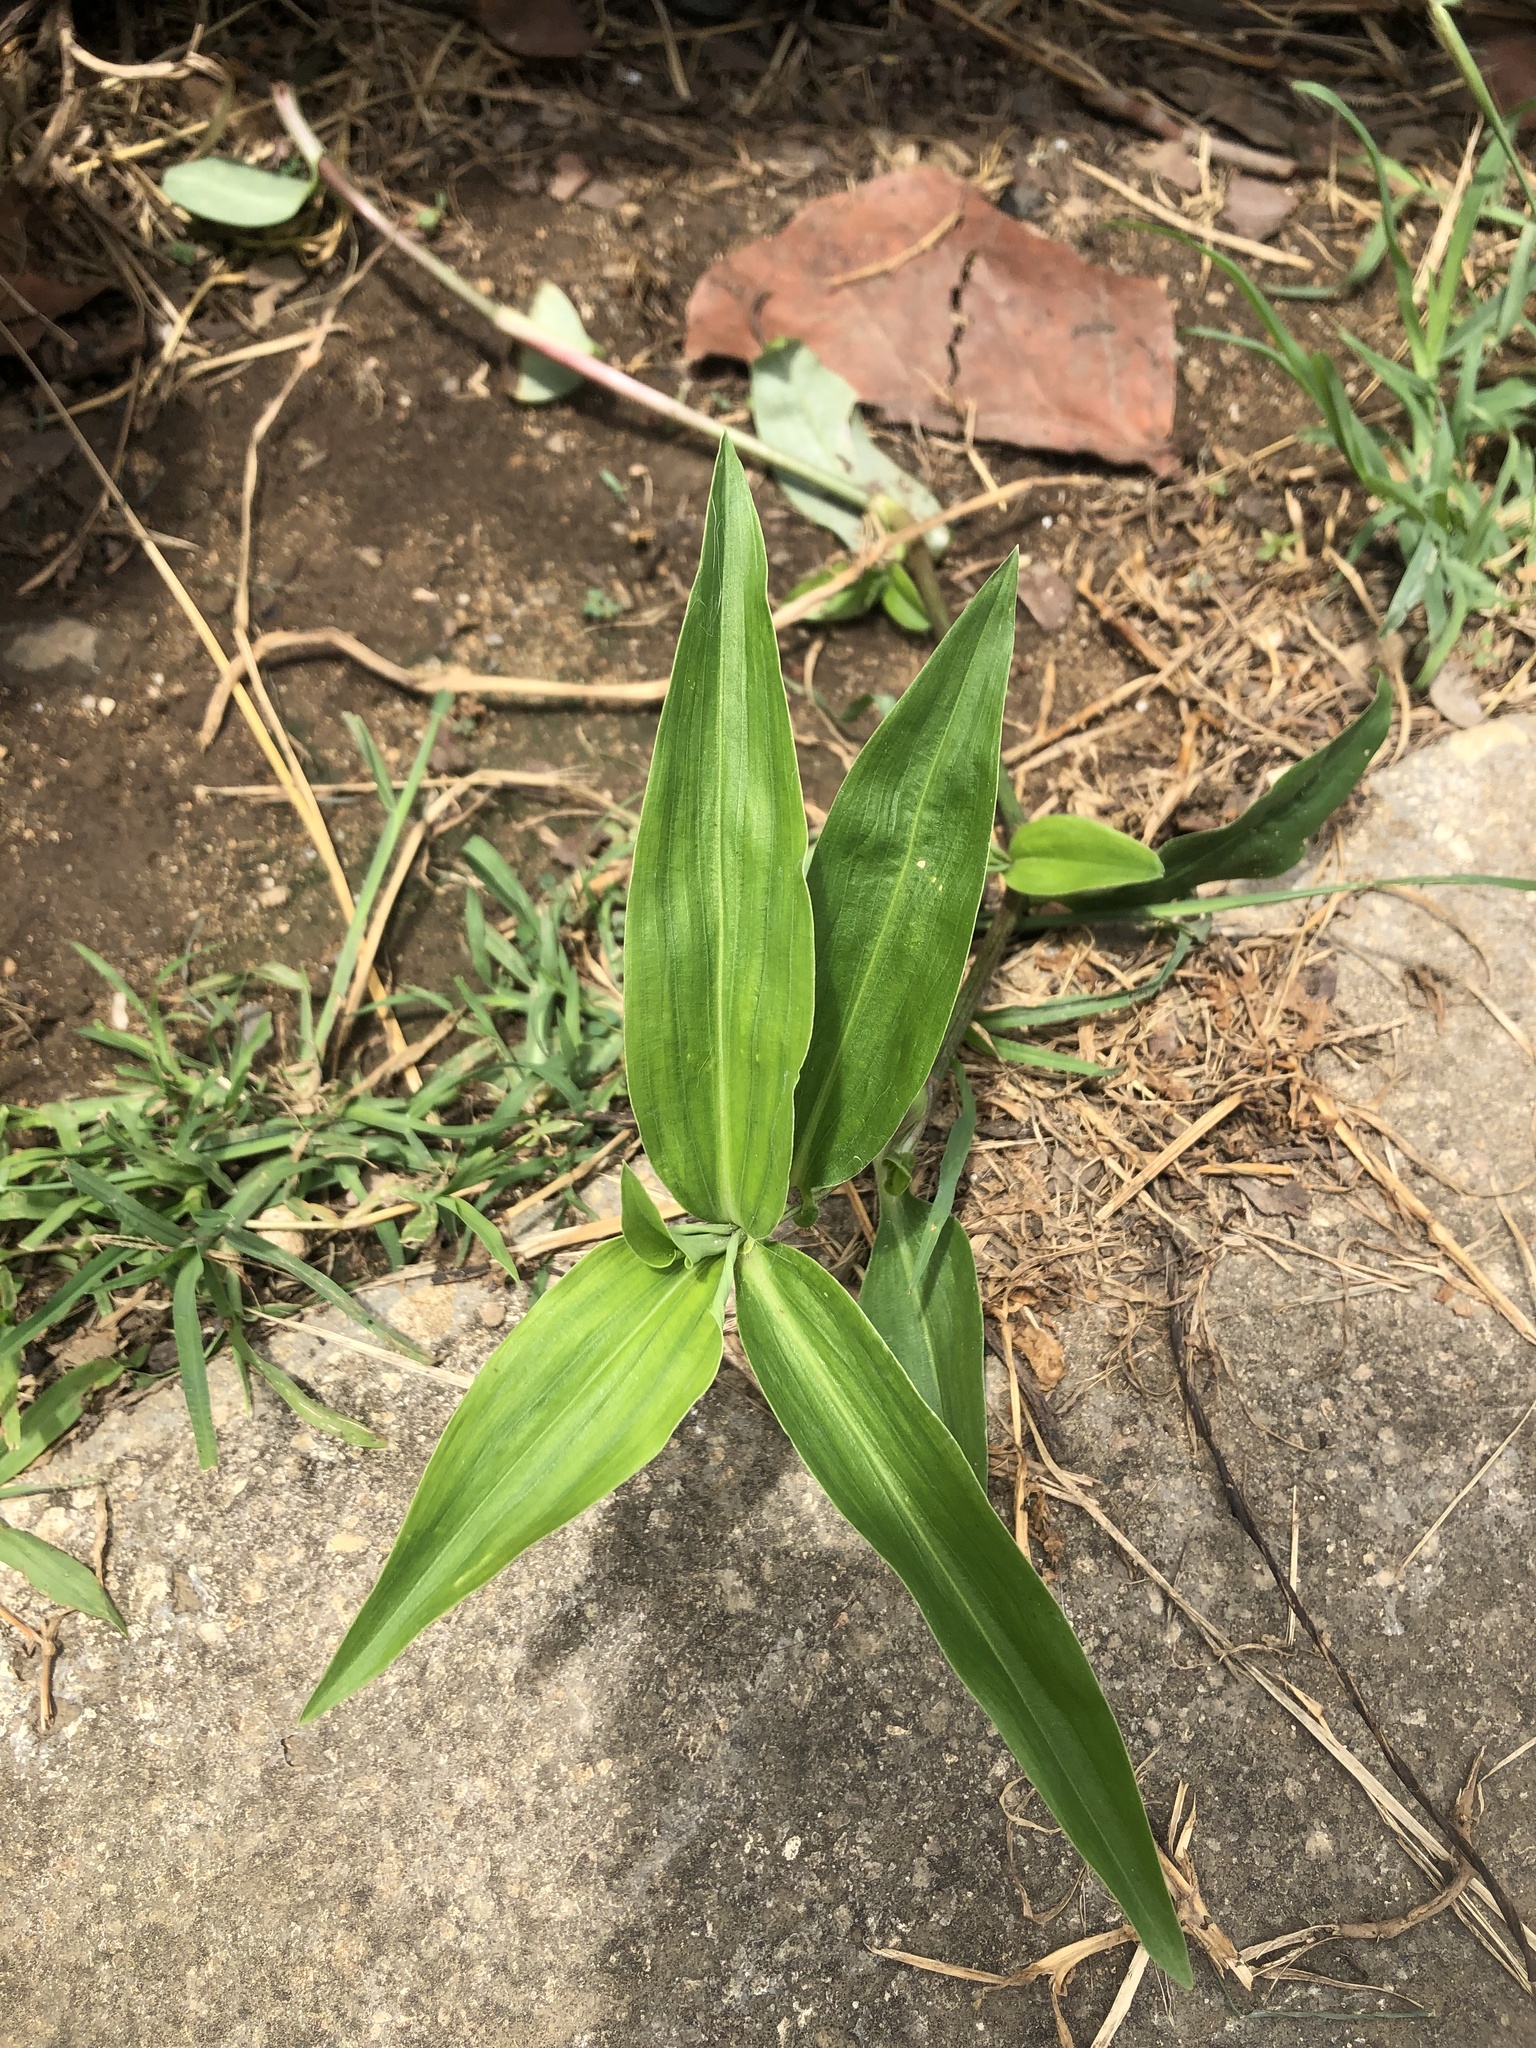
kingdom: Plantae
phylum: Tracheophyta
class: Liliopsida
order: Commelinales
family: Commelinaceae
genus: Commelina
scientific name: Commelina erecta
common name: Blousel blommetjie
